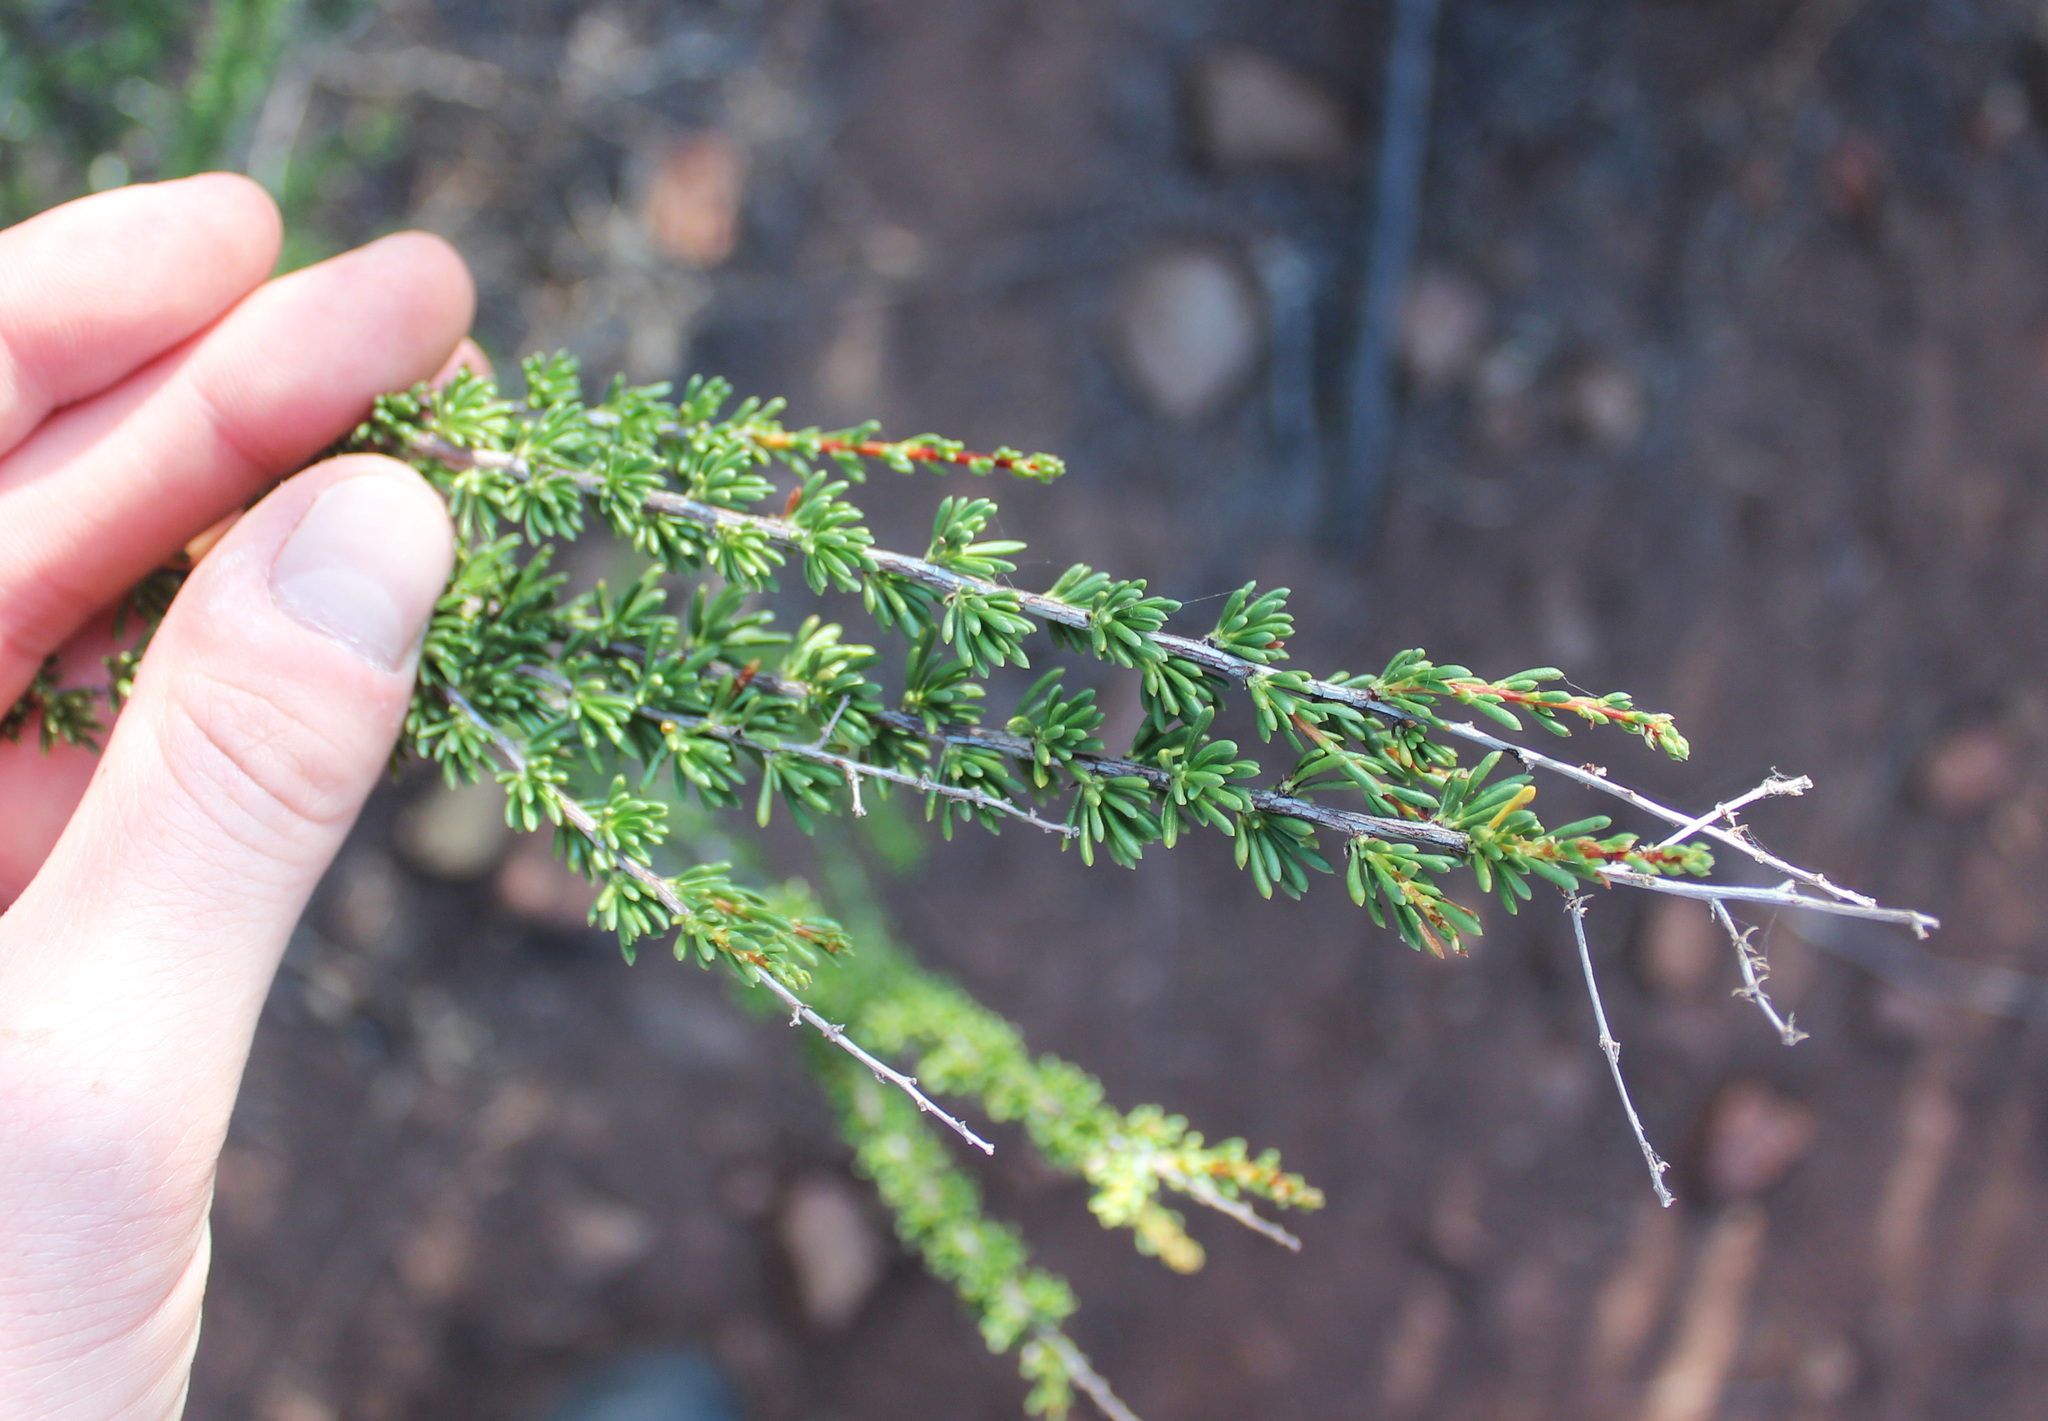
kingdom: Plantae
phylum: Tracheophyta
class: Magnoliopsida
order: Rosales
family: Rosaceae
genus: Adenostoma
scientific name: Adenostoma fasciculatum
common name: Chamise
